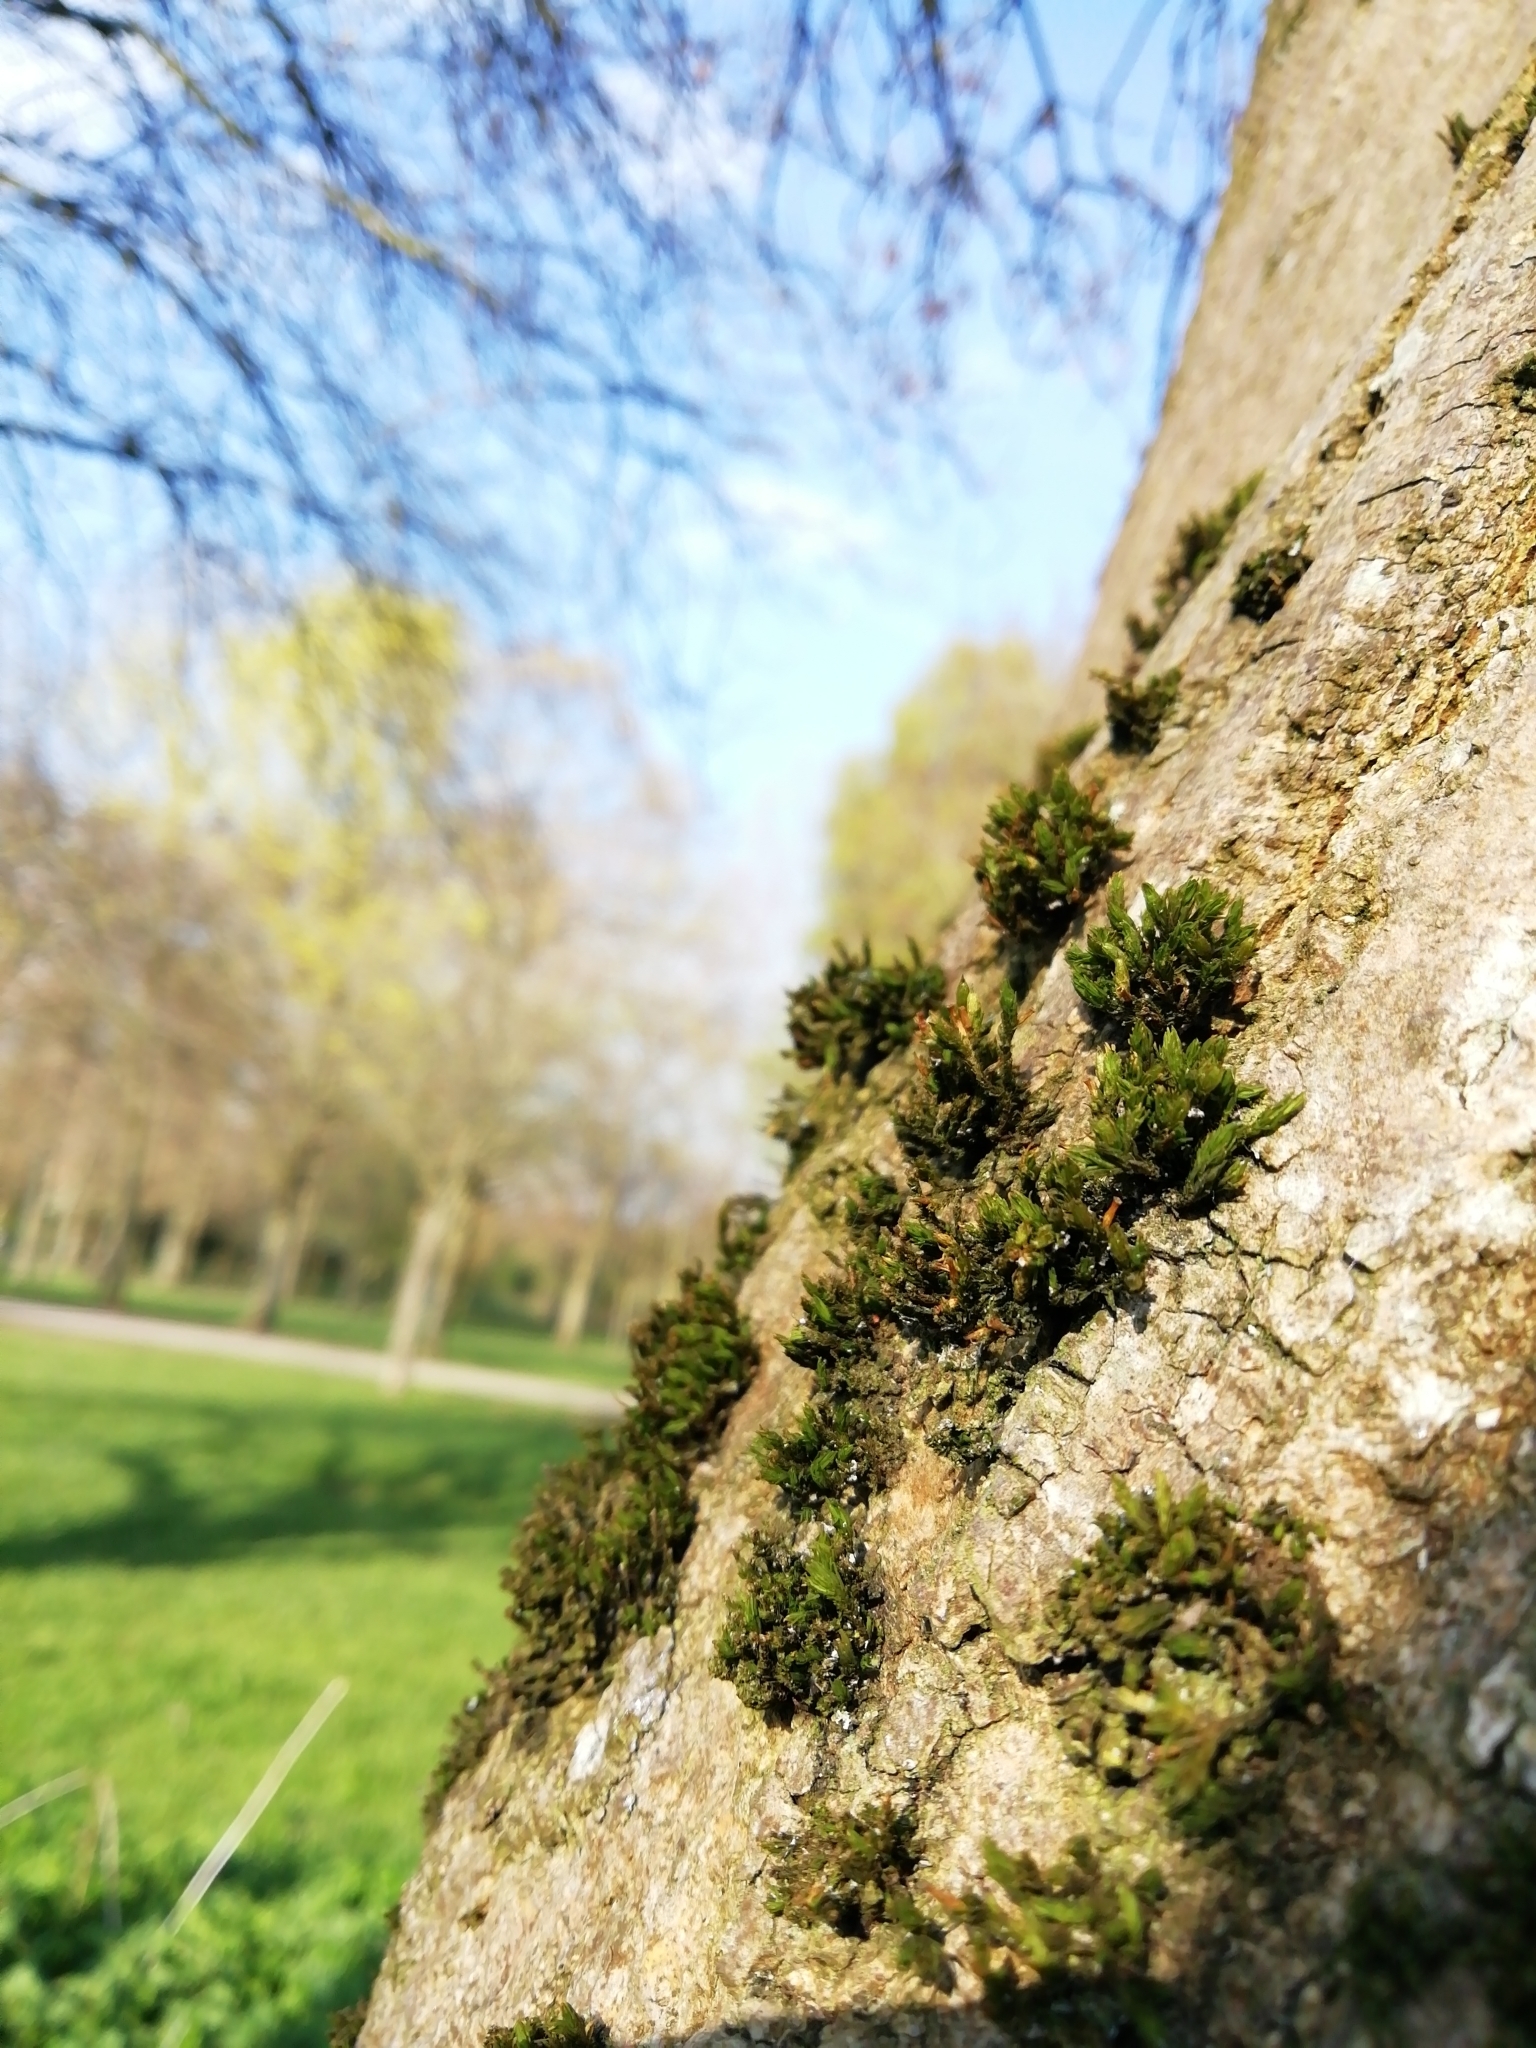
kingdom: Plantae
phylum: Bryophyta
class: Bryopsida
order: Orthotrichales
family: Orthotrichaceae
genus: Lewinskya
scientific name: Lewinskya affinis
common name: Wood bristle-moss
